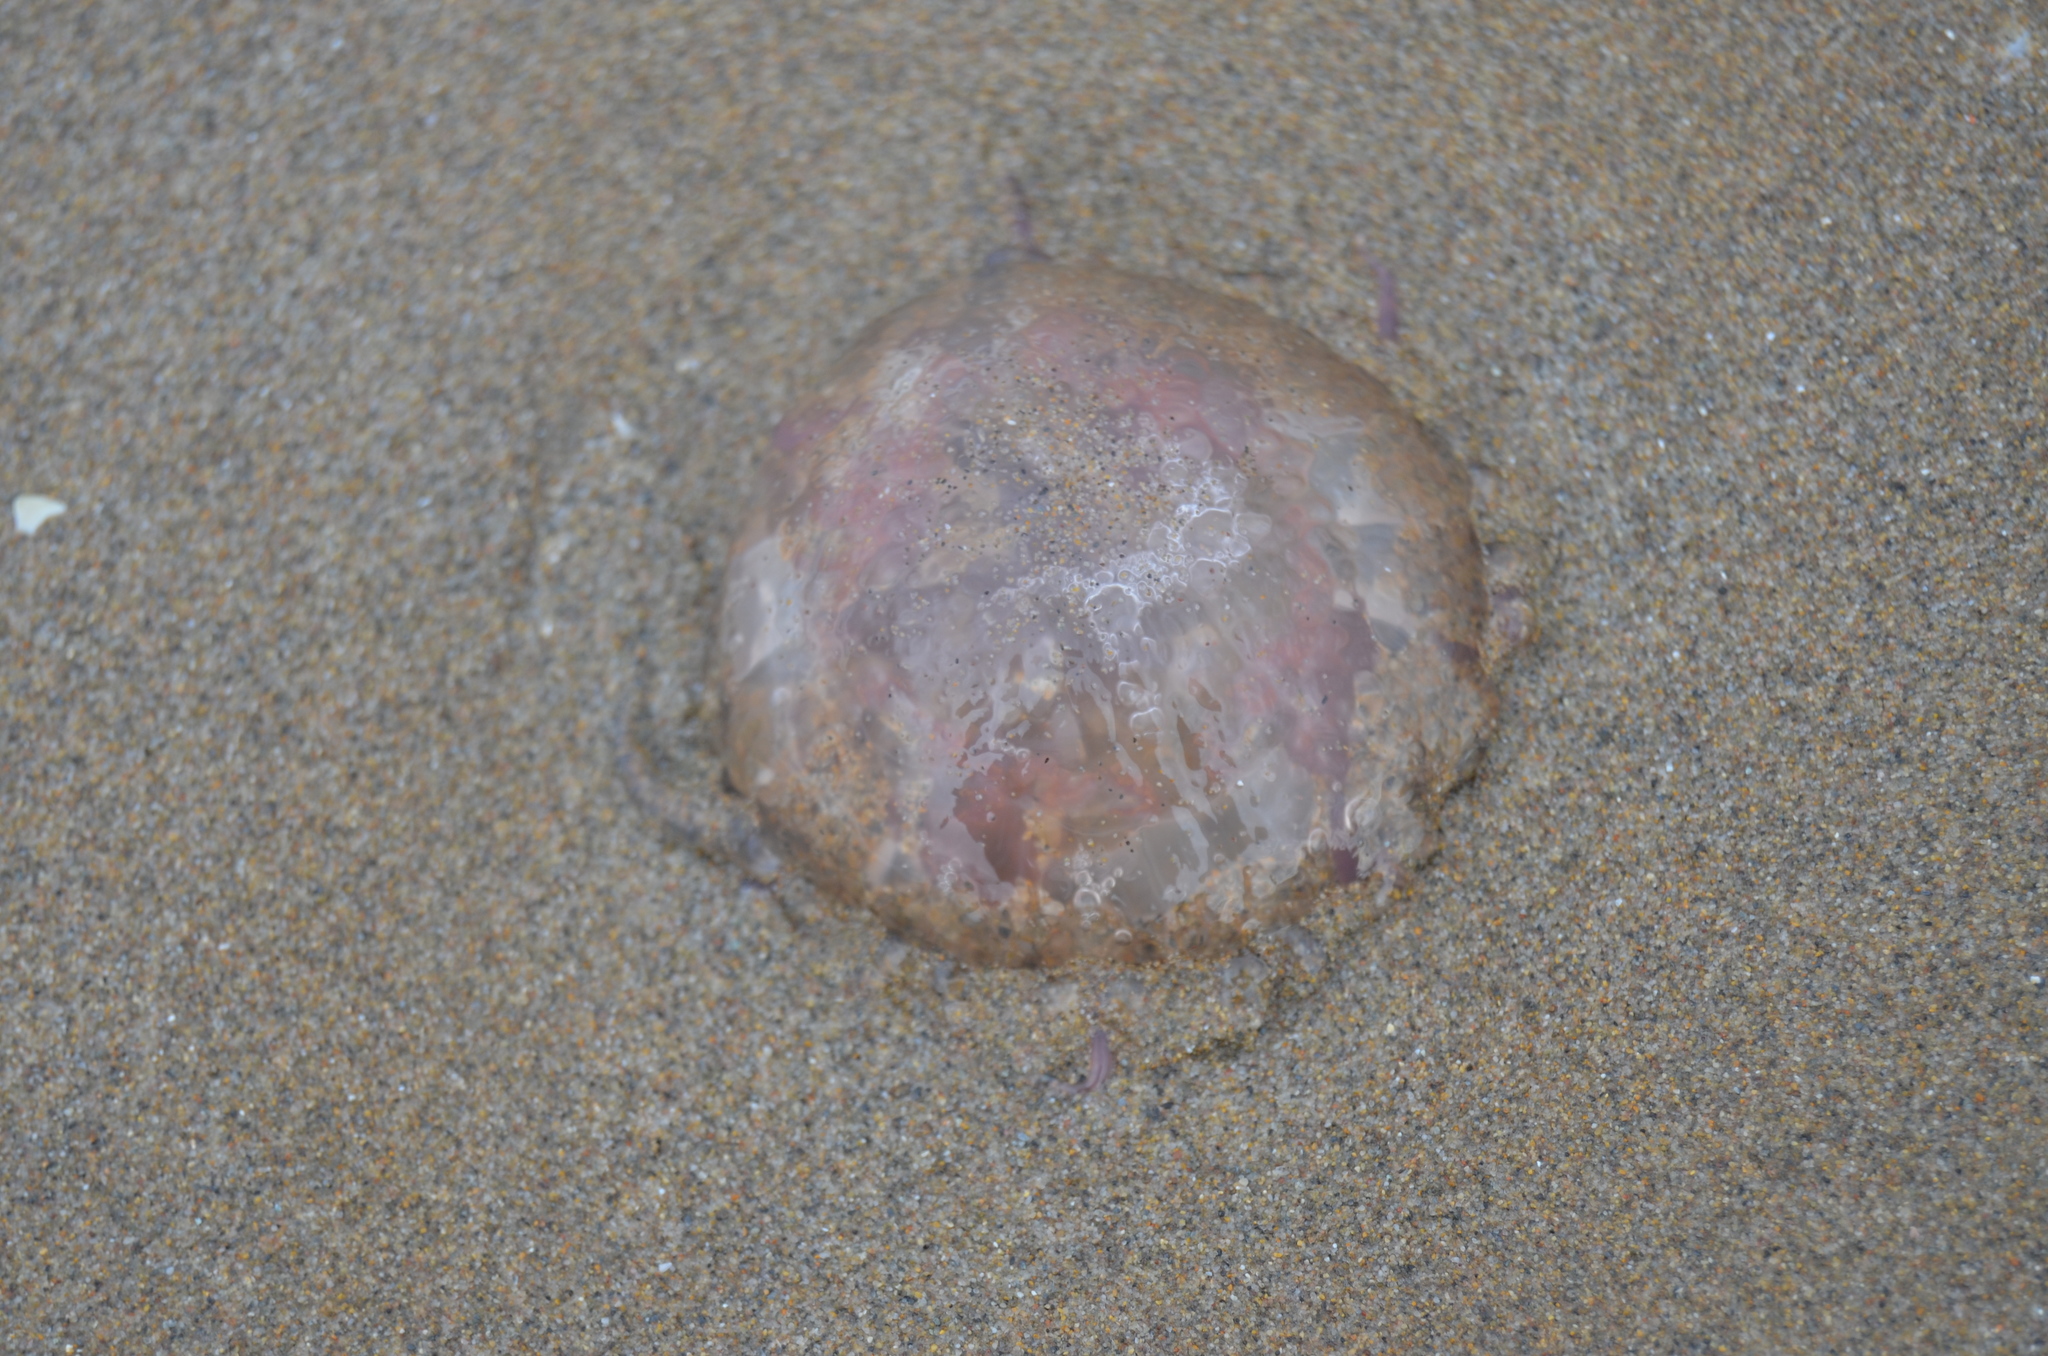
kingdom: Animalia
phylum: Cnidaria
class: Scyphozoa
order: Semaeostomeae
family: Pelagiidae
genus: Pelagia
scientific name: Pelagia noctiluca
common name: Mauve stinger
